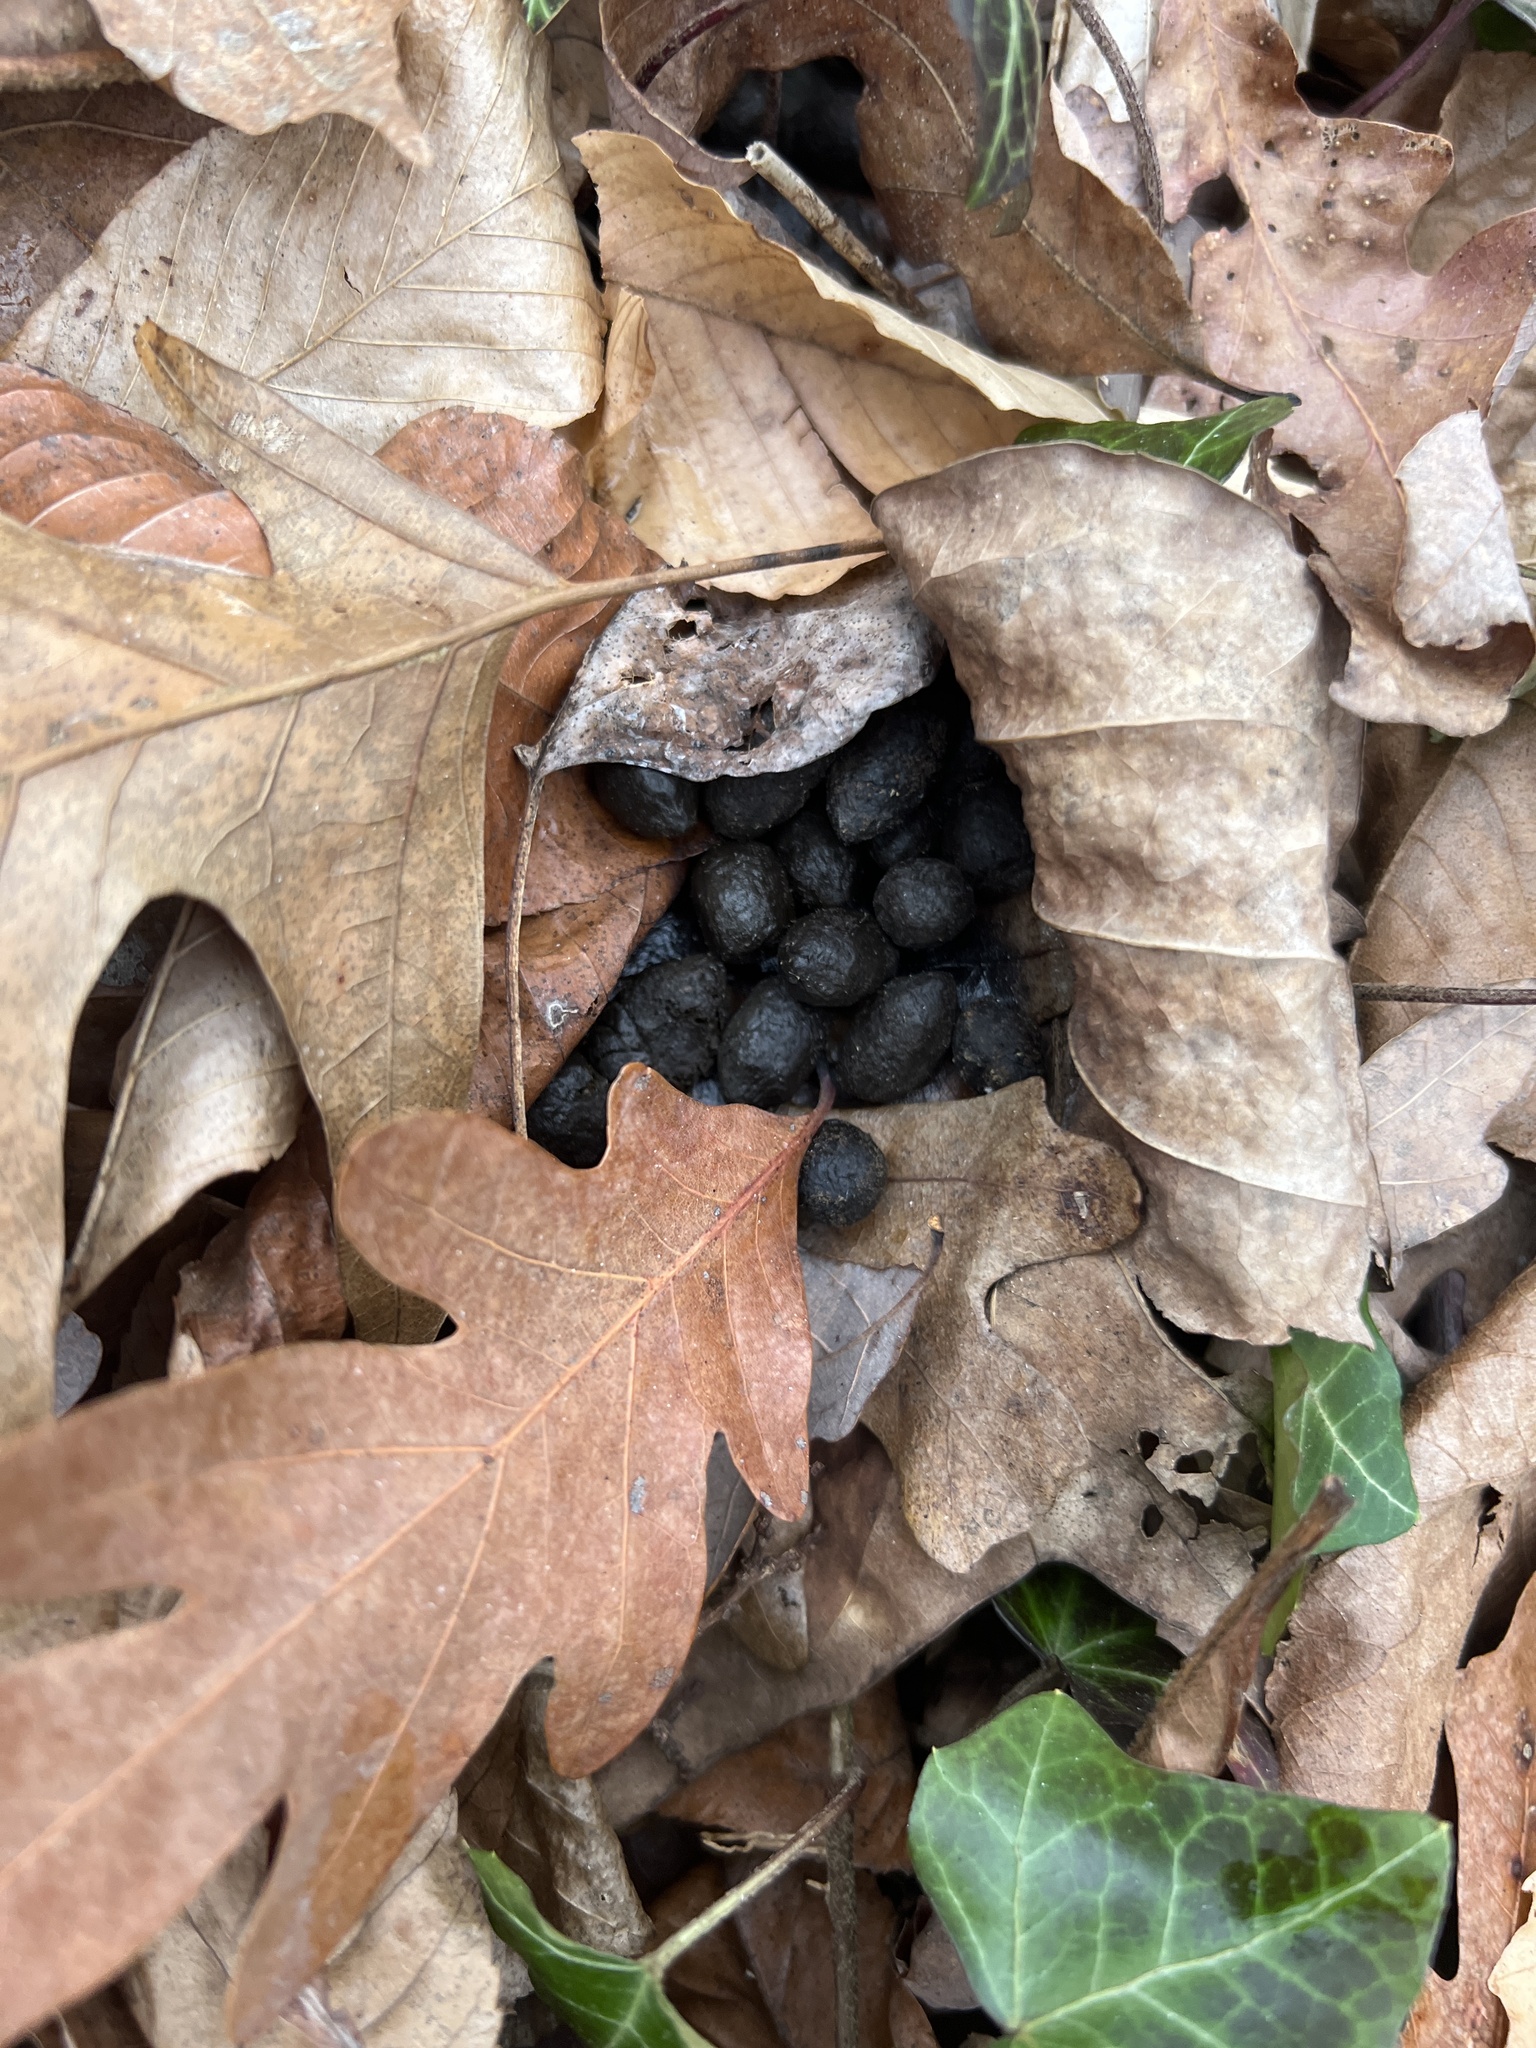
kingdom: Animalia
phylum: Chordata
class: Mammalia
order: Artiodactyla
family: Cervidae
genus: Odocoileus
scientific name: Odocoileus virginianus
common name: White-tailed deer
